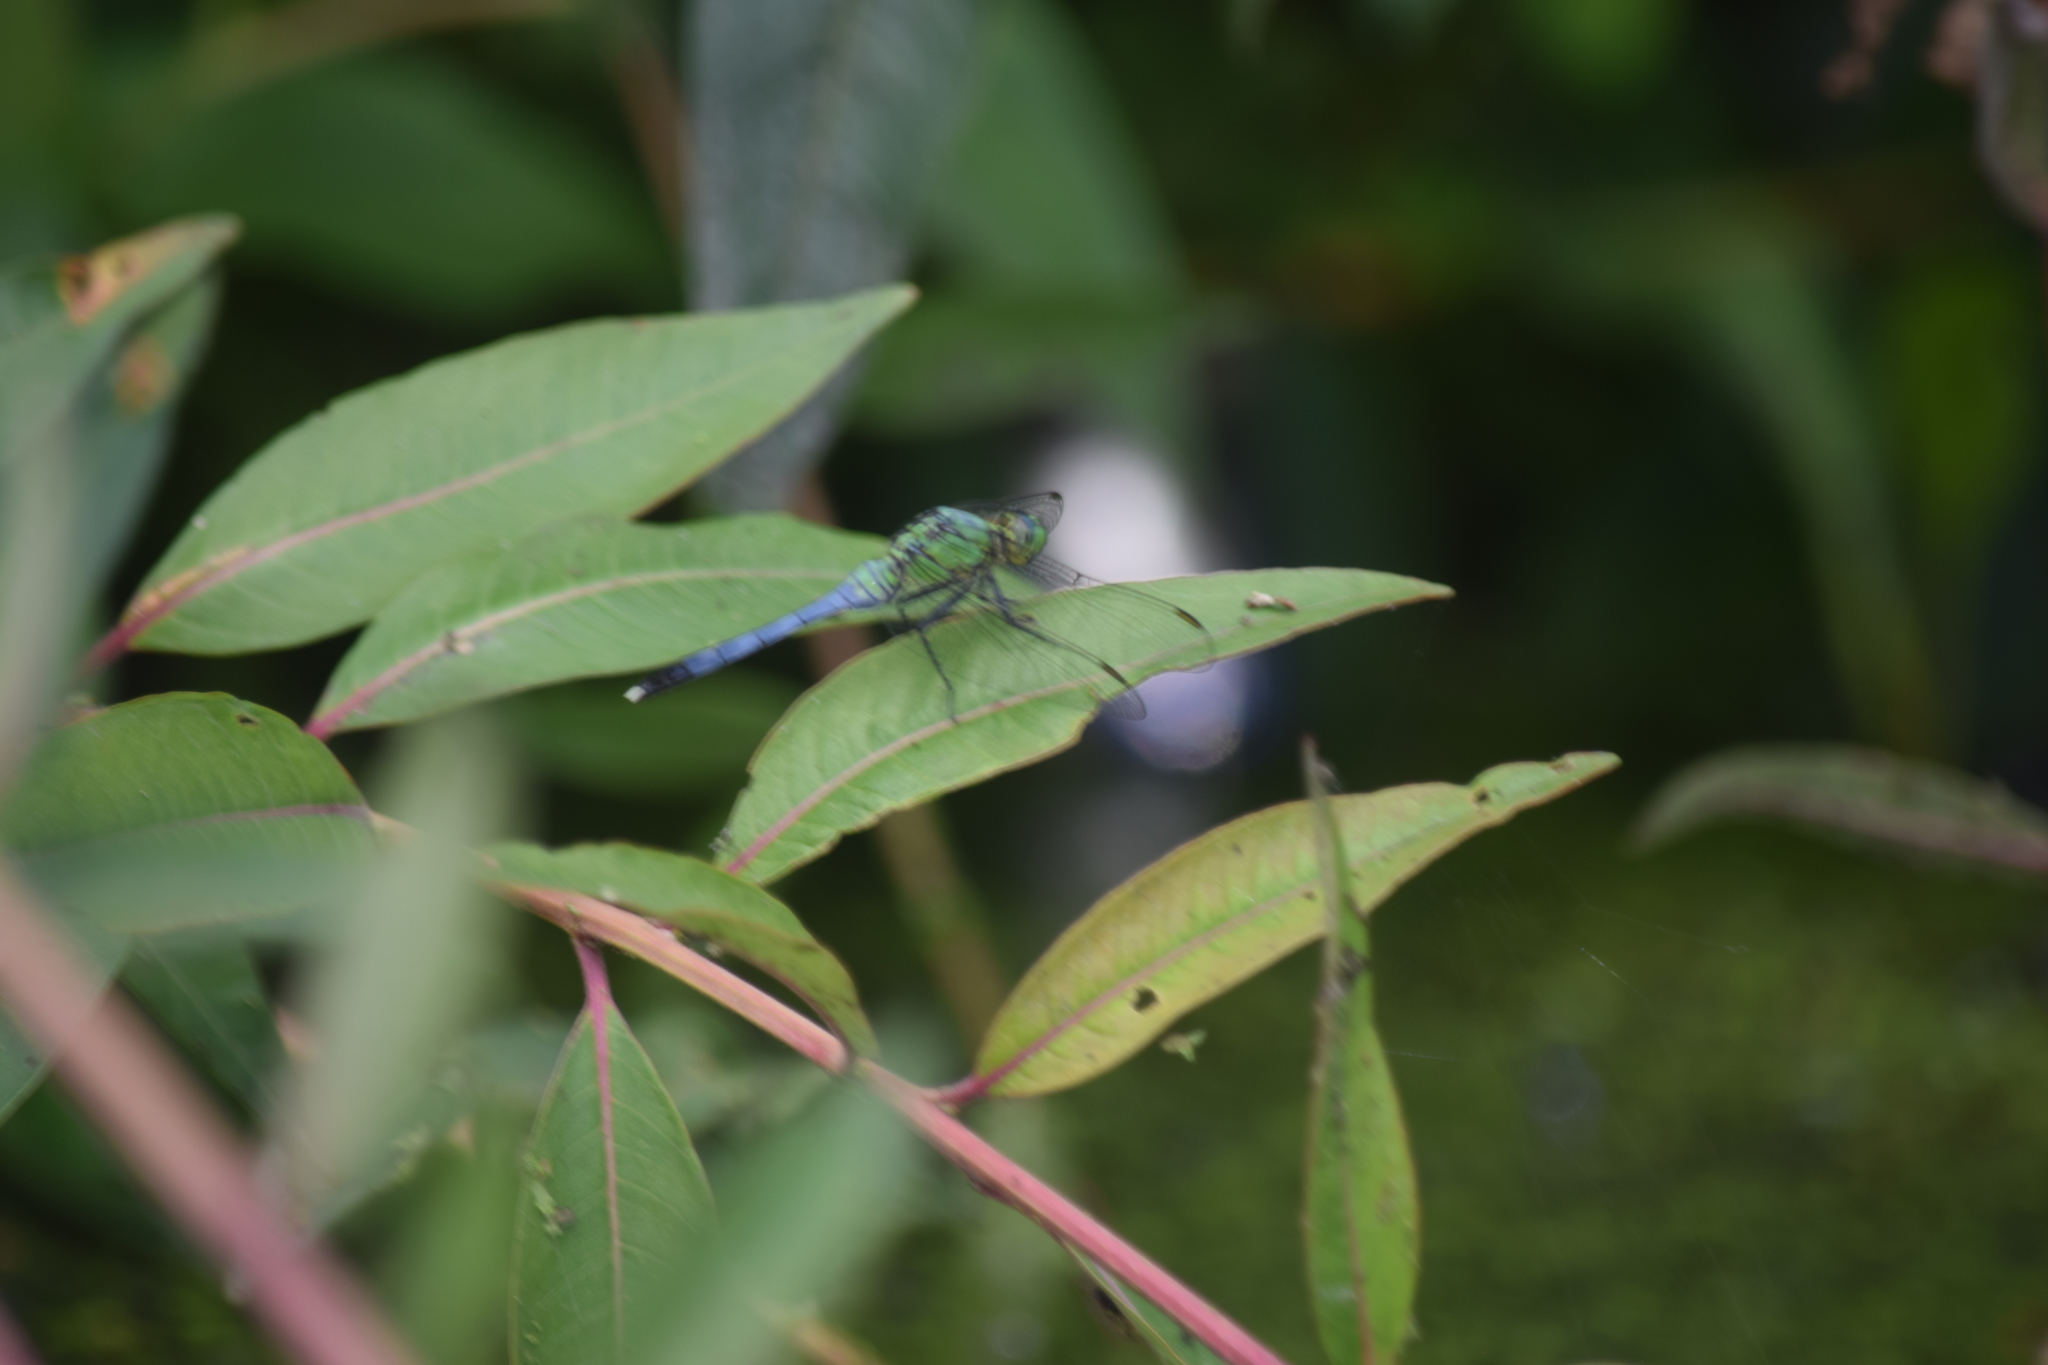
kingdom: Animalia
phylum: Arthropoda
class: Insecta
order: Odonata
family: Libellulidae
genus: Erythemis
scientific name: Erythemis simplicicollis
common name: Eastern pondhawk
